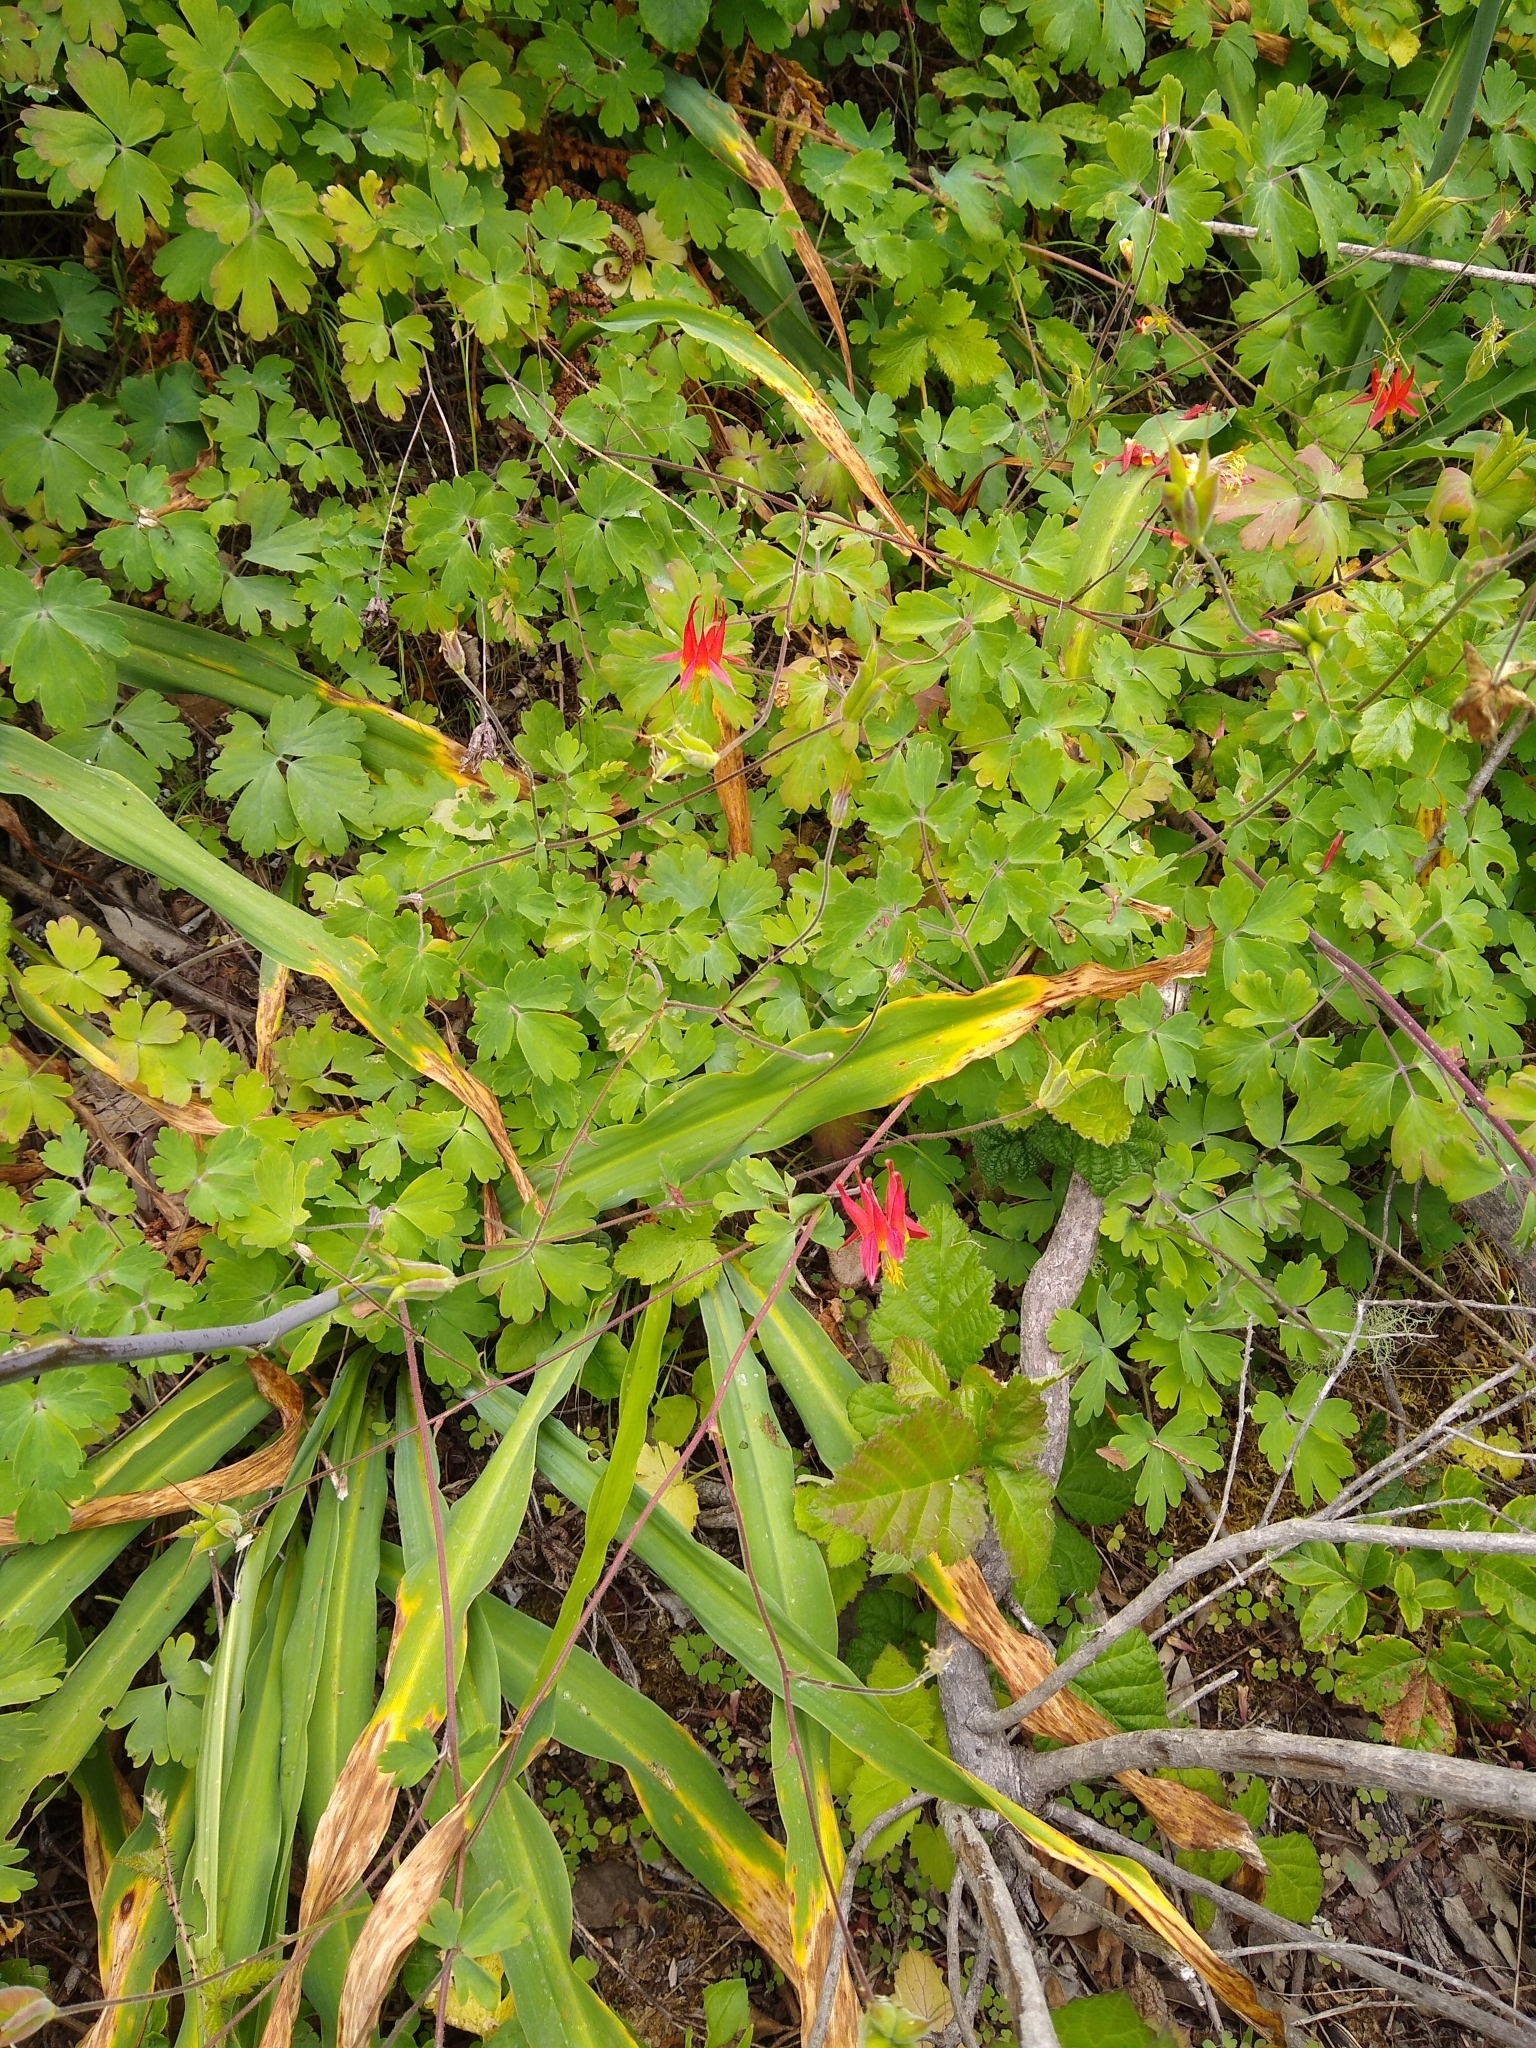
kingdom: Plantae
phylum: Tracheophyta
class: Magnoliopsida
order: Ranunculales
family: Ranunculaceae
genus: Aquilegia
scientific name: Aquilegia formosa
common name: Sitka columbine
